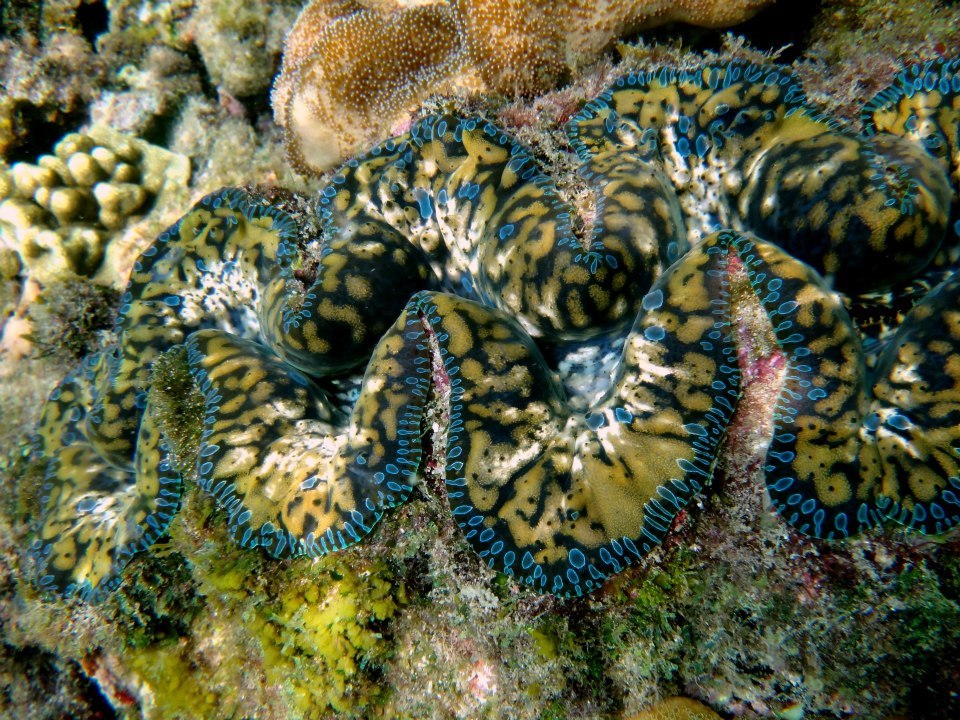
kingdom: Animalia
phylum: Mollusca
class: Bivalvia
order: Cardiida
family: Cardiidae
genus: Tridacna
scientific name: Tridacna noae
